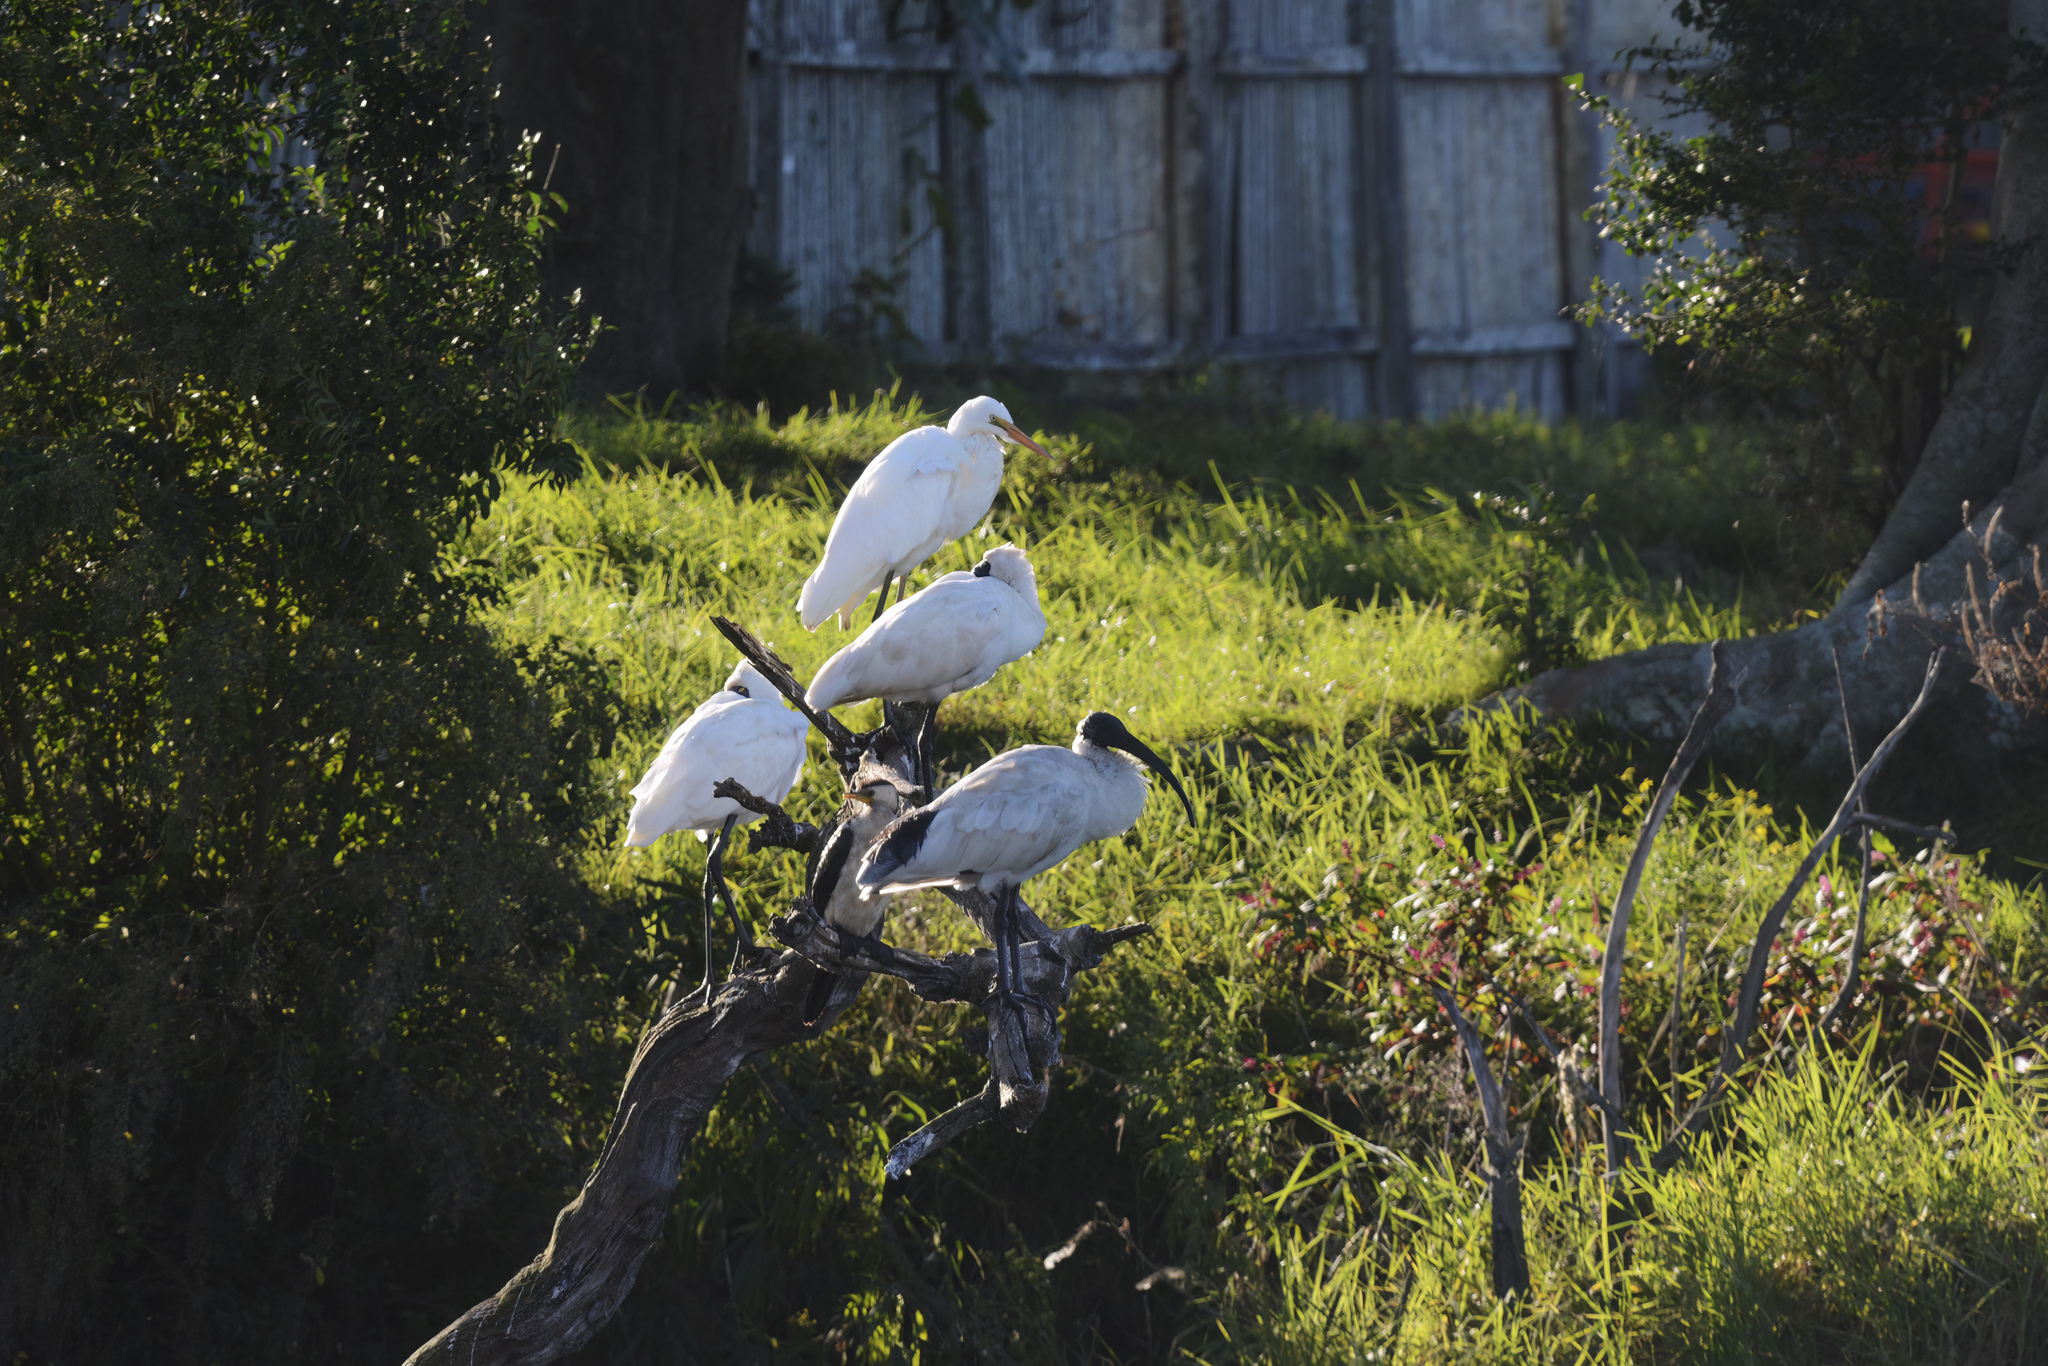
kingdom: Animalia
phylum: Chordata
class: Aves
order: Pelecaniformes
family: Threskiornithidae
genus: Threskiornis
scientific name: Threskiornis molucca
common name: Australian white ibis
